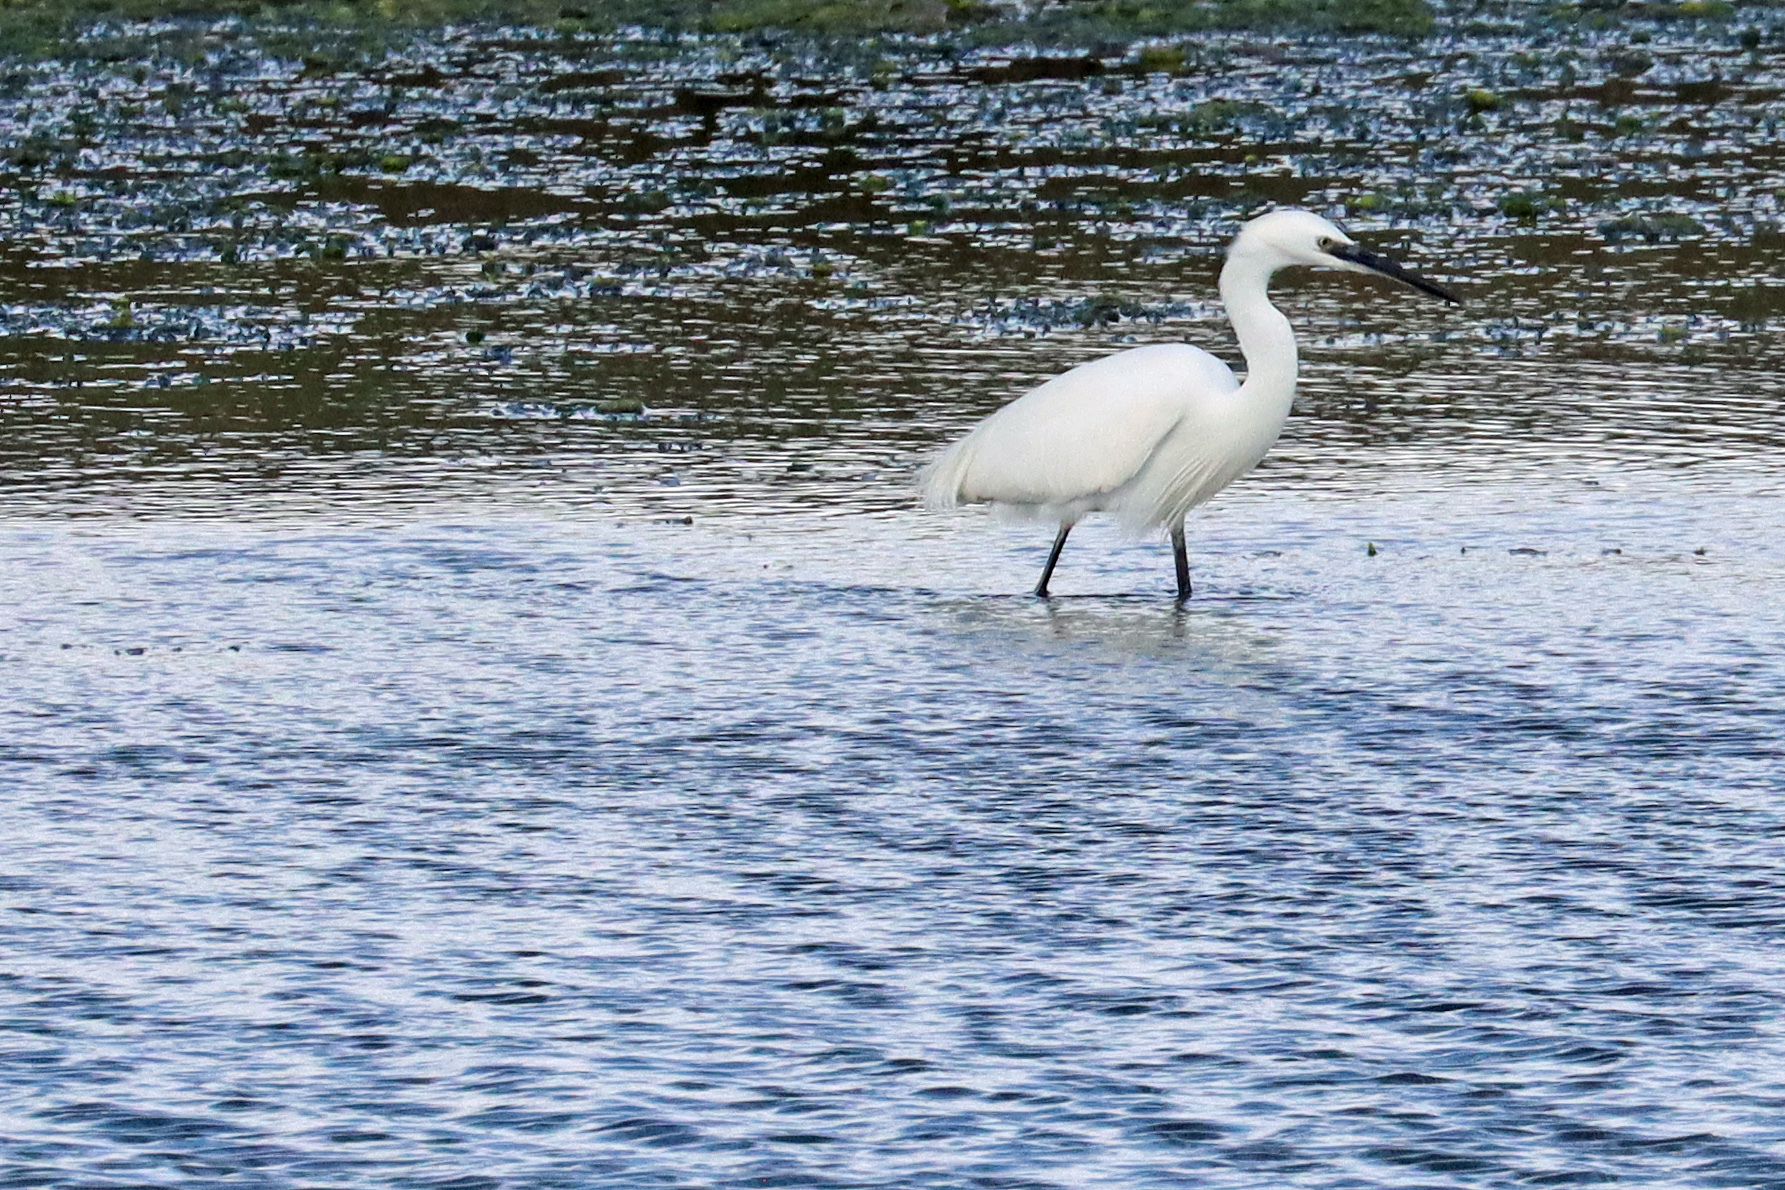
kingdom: Animalia
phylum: Chordata
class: Aves
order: Pelecaniformes
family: Ardeidae
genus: Egretta
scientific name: Egretta garzetta
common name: Little egret
